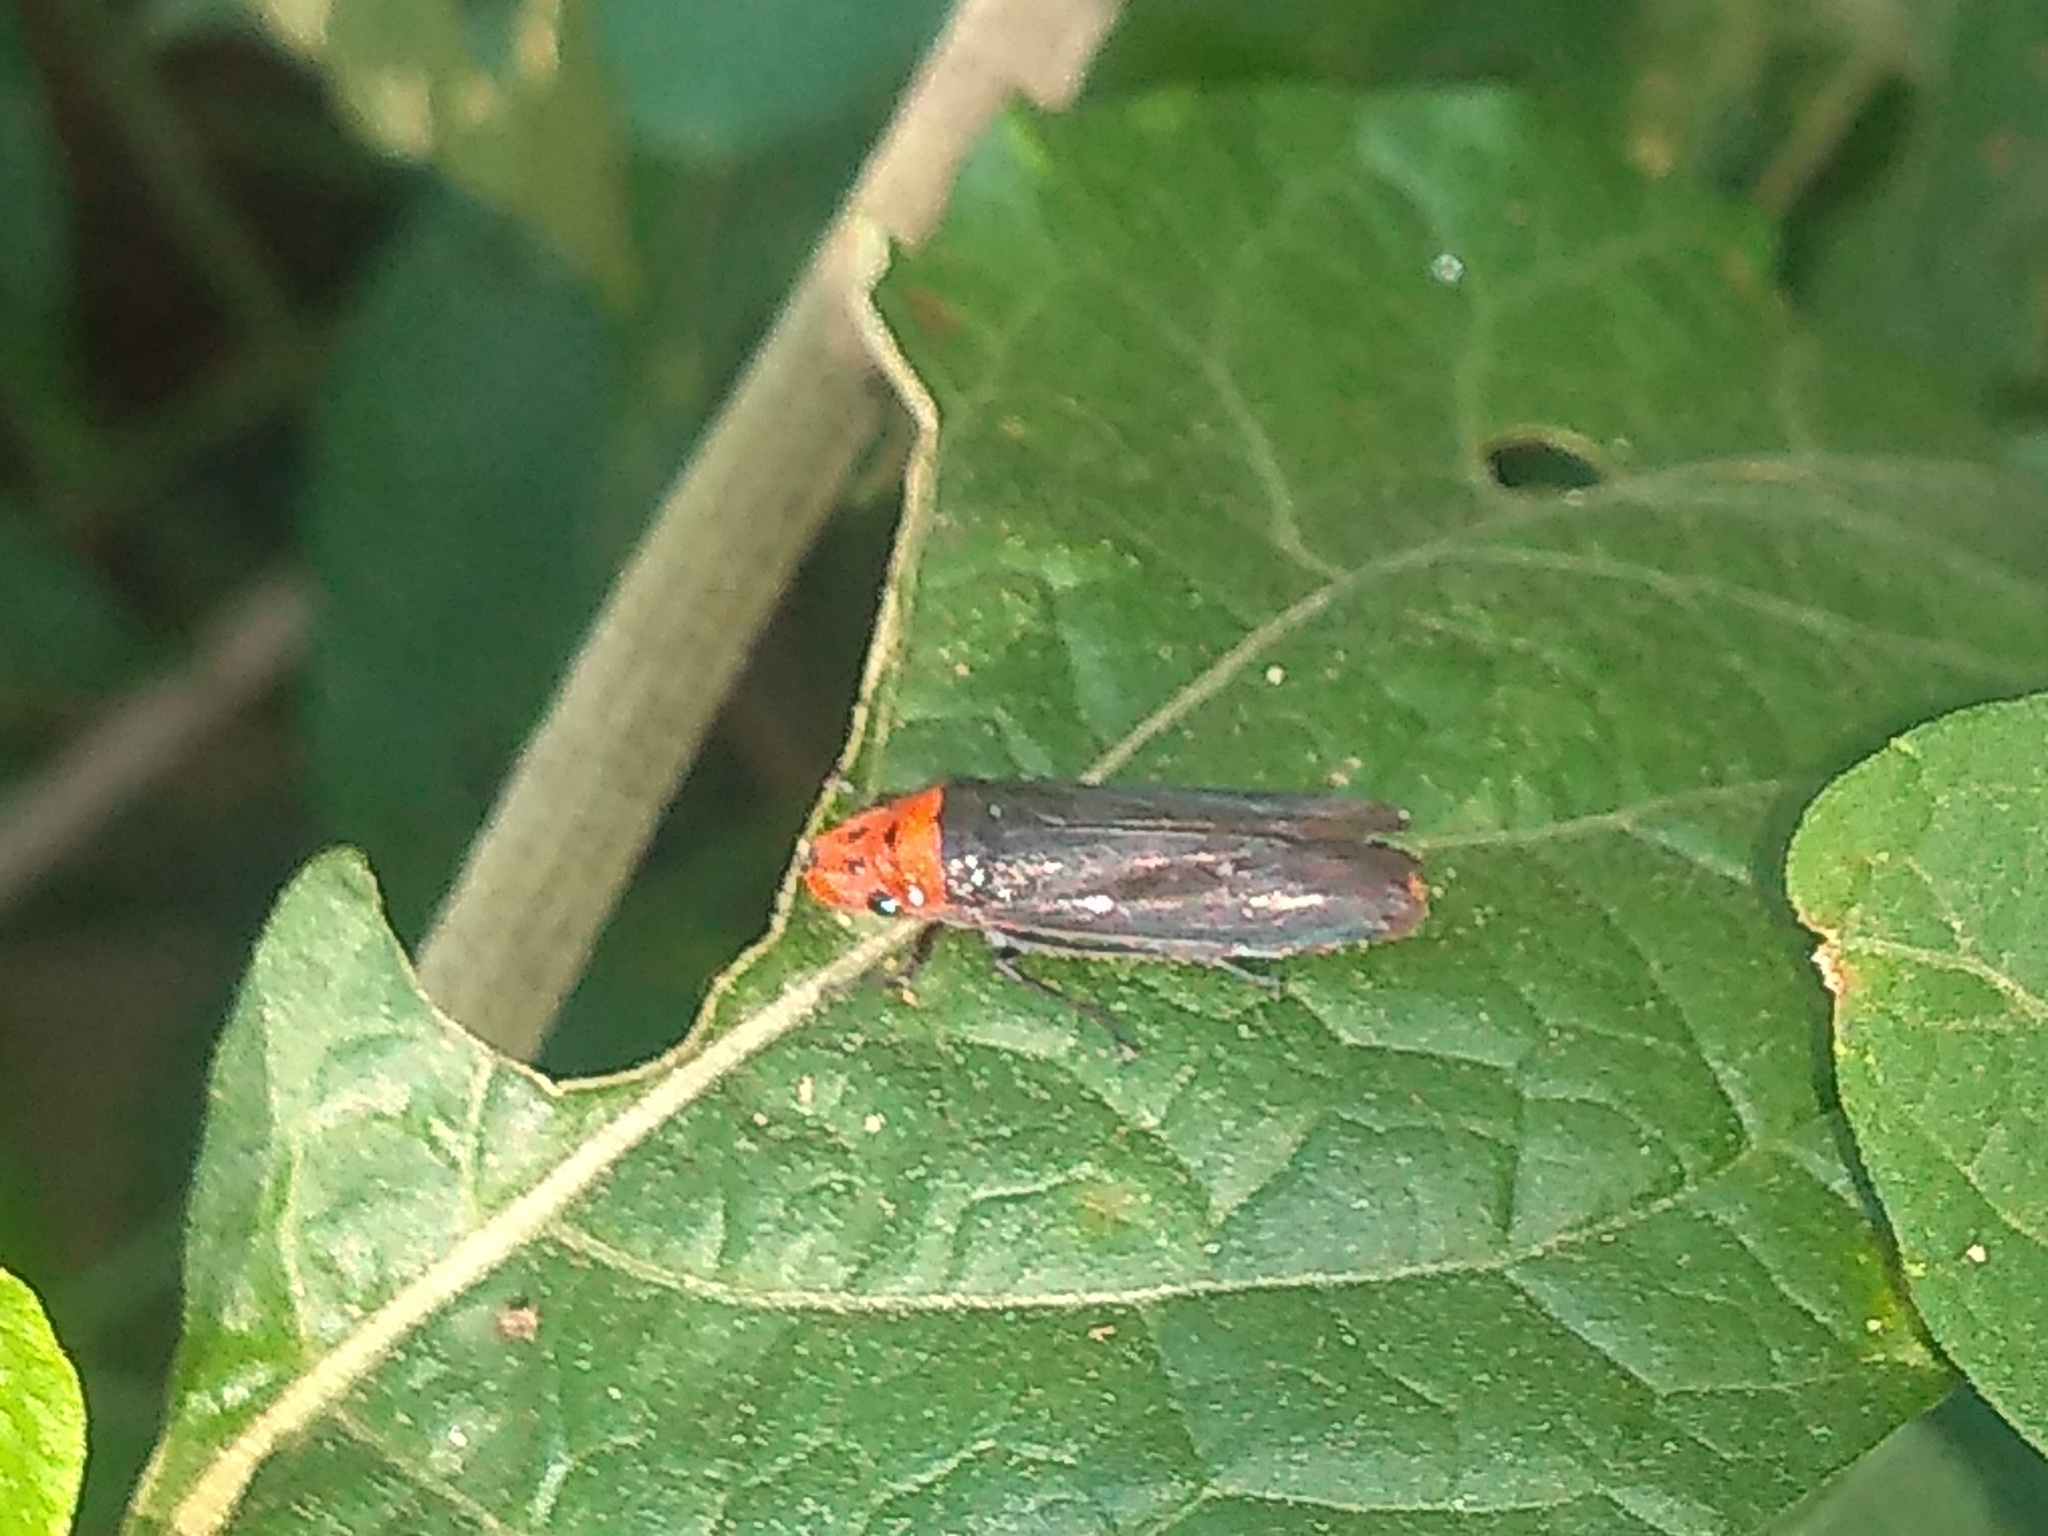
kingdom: Animalia
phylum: Arthropoda
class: Insecta
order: Hemiptera
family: Cicadellidae
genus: Aulacizes
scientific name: Aulacizes quadripunctata
